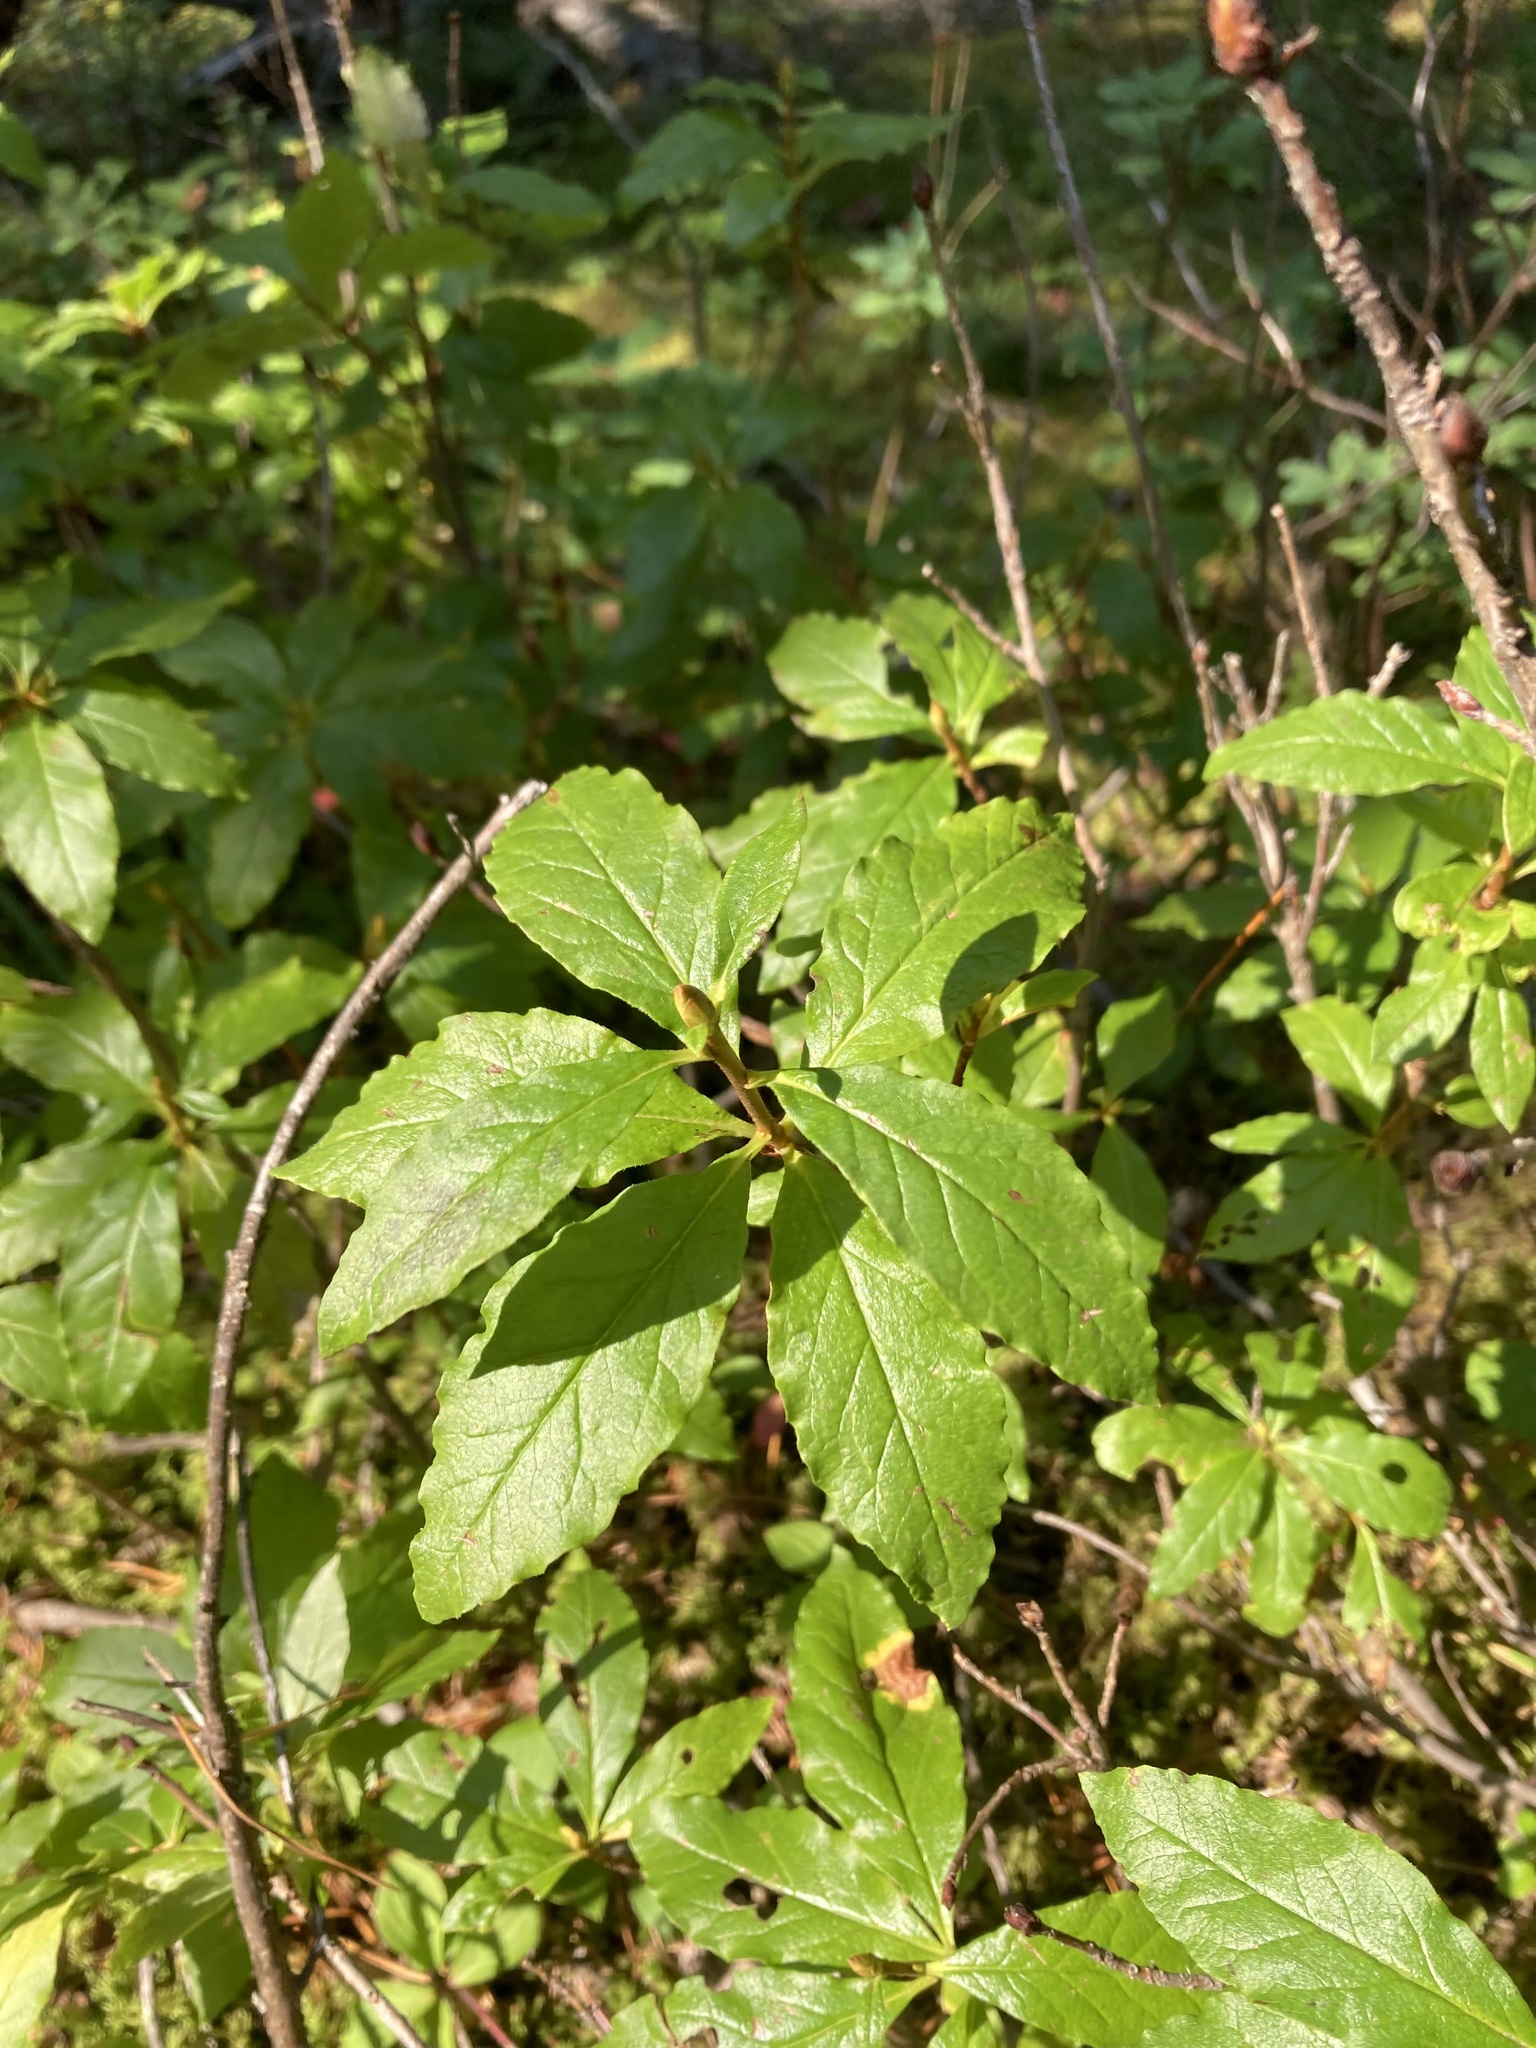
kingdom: Plantae
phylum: Tracheophyta
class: Magnoliopsida
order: Ericales
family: Ericaceae
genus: Rhododendron
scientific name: Rhododendron albiflorum
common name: White rhododendron
